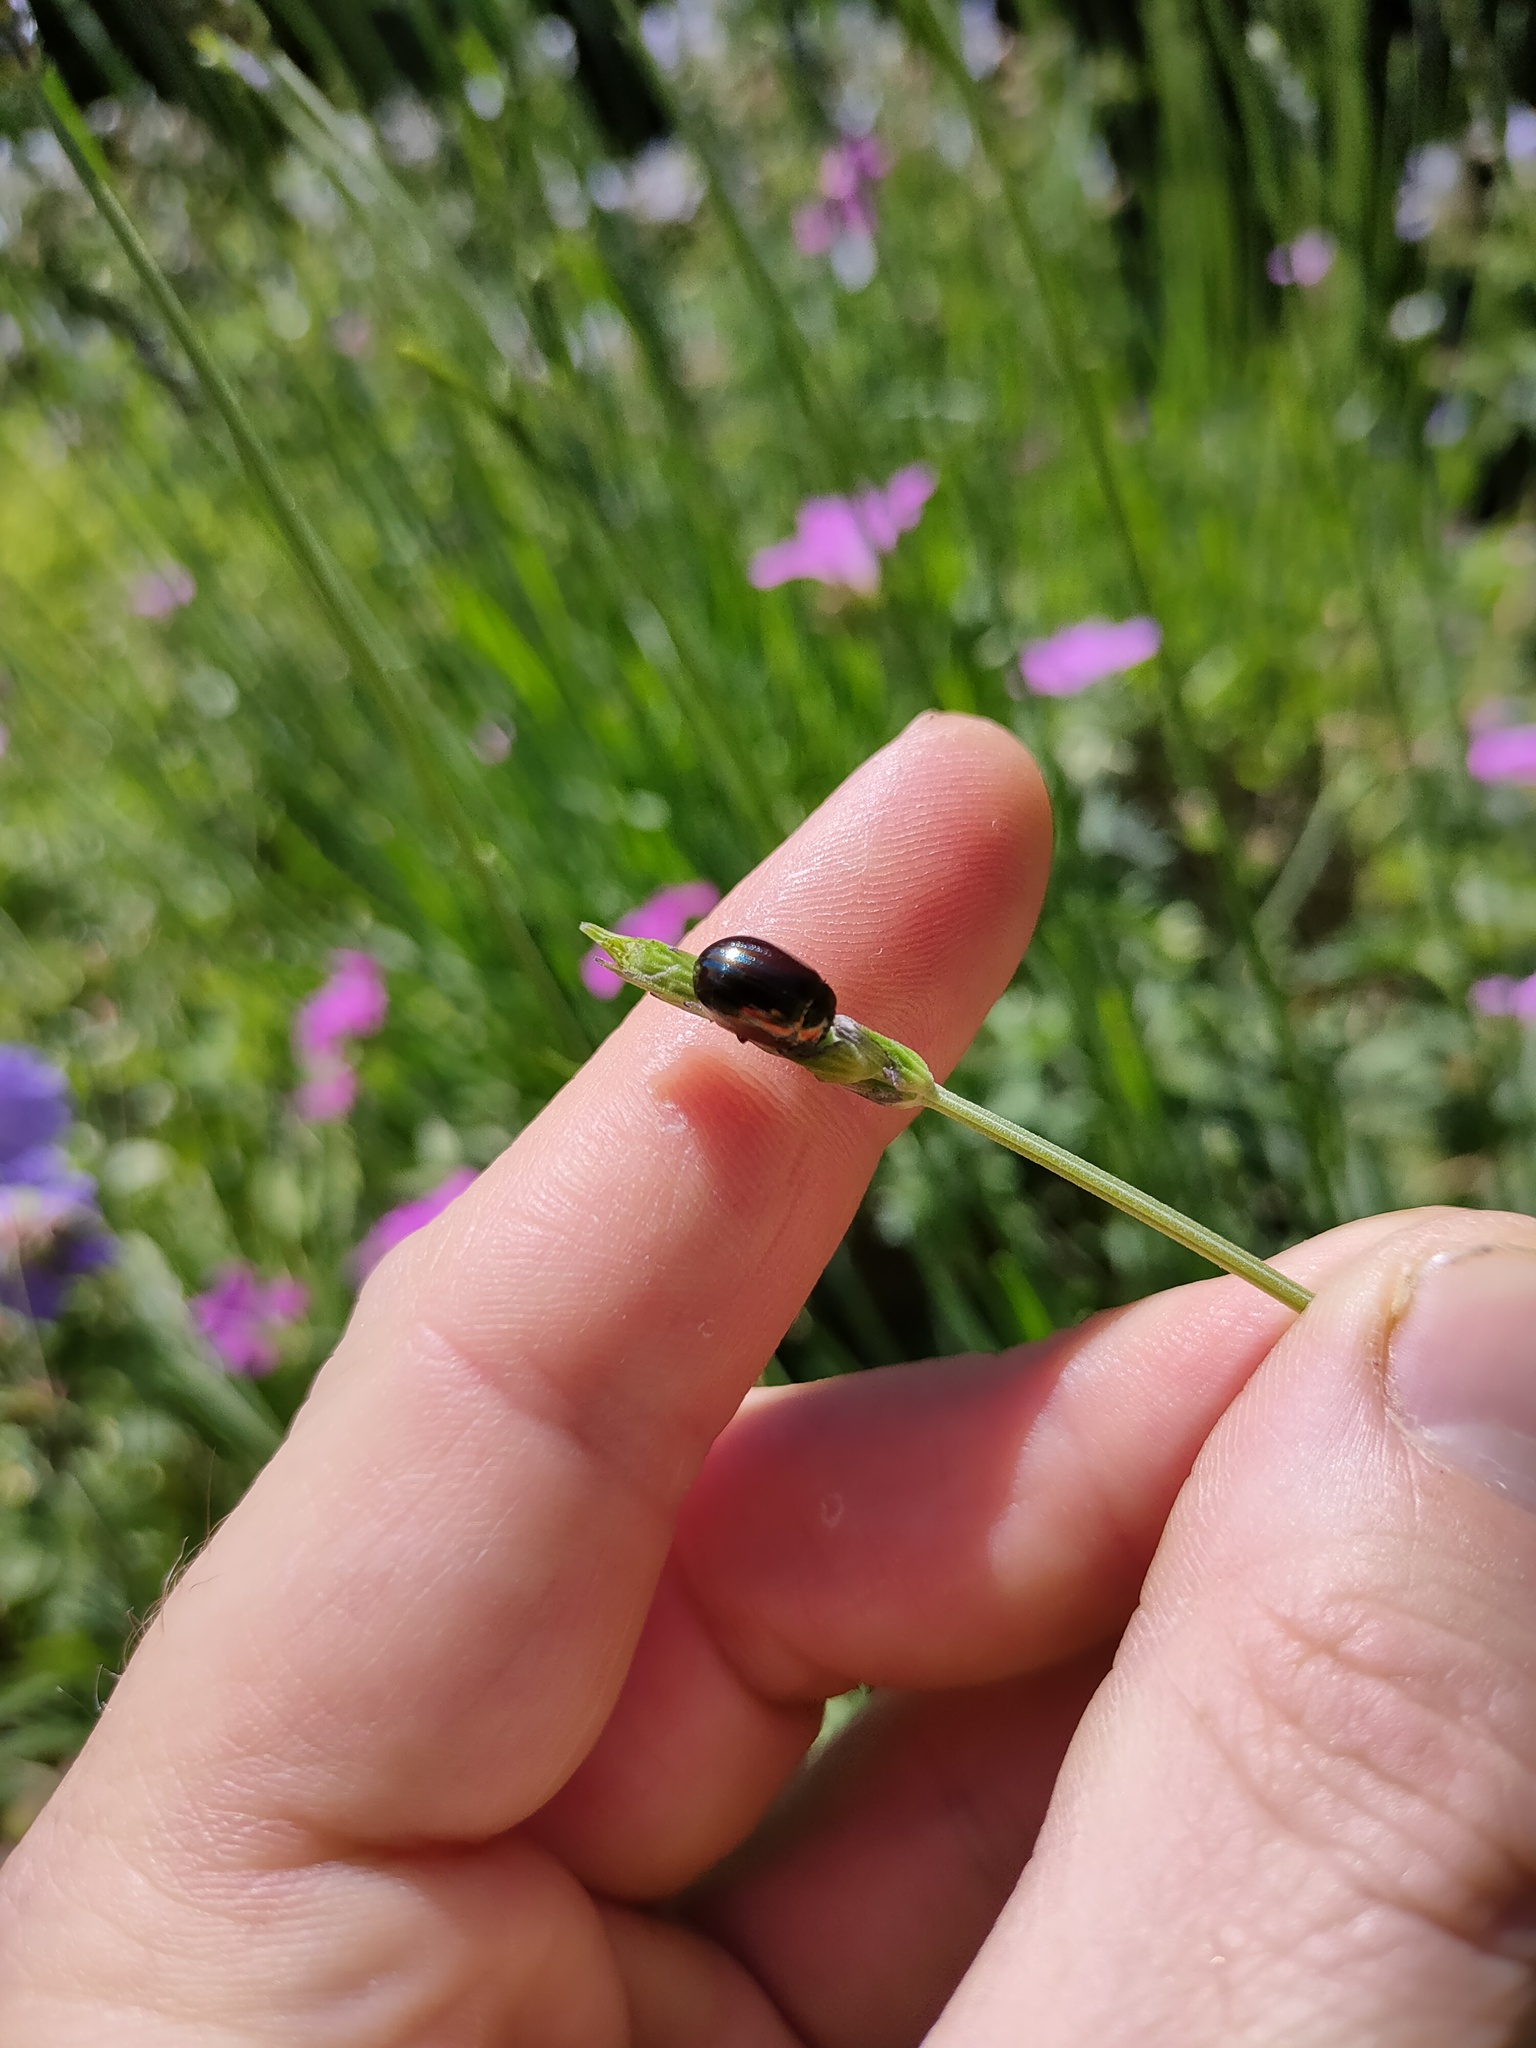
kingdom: Animalia
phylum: Arthropoda
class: Insecta
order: Coleoptera
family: Chrysomelidae
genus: Chrysolina
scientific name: Chrysolina americana
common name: Rosemary beetle
